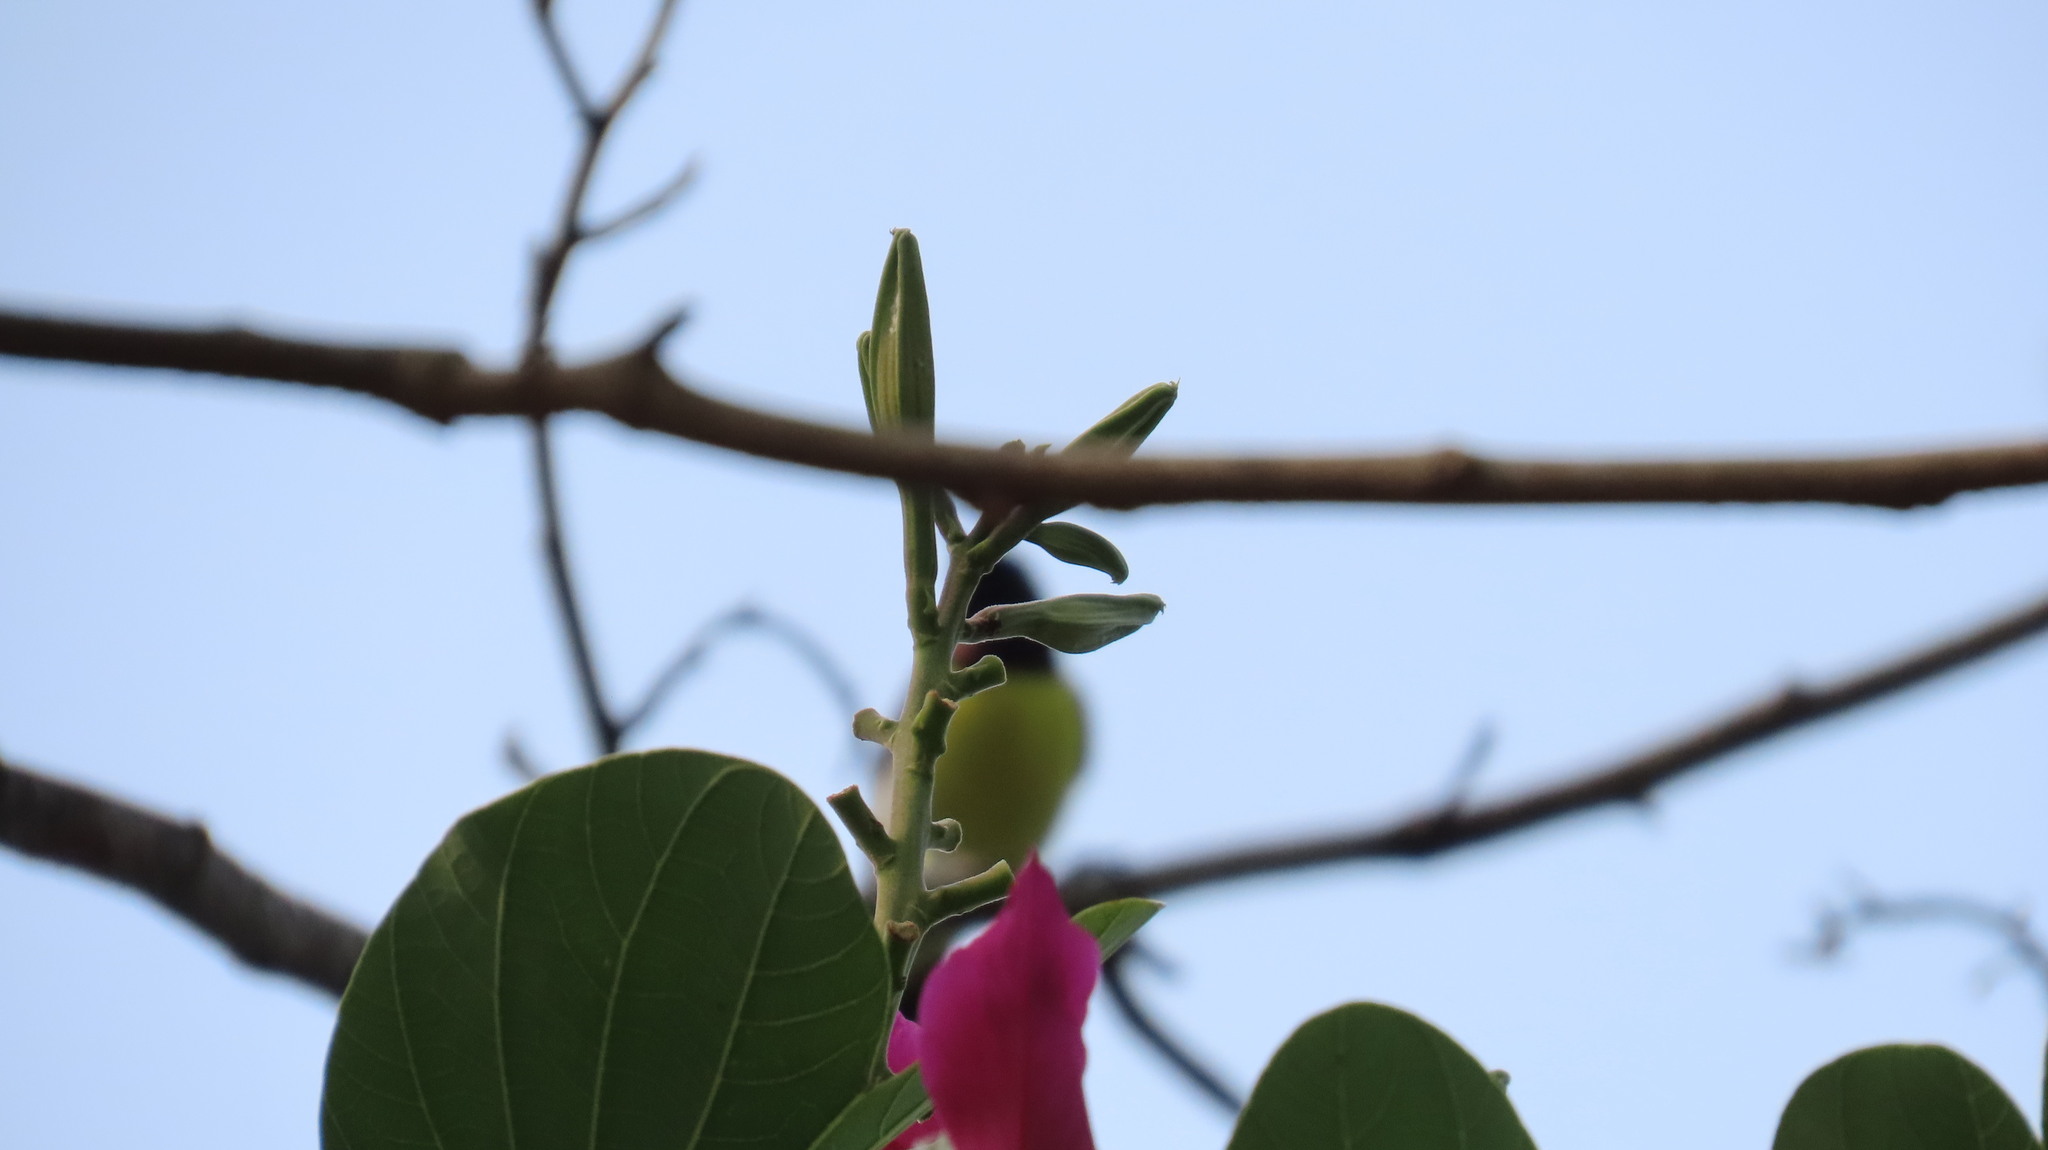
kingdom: Animalia
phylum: Chordata
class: Aves
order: Passeriformes
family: Nectariniidae
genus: Leptocoma
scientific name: Leptocoma zeylonica
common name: Purple-rumped sunbird
